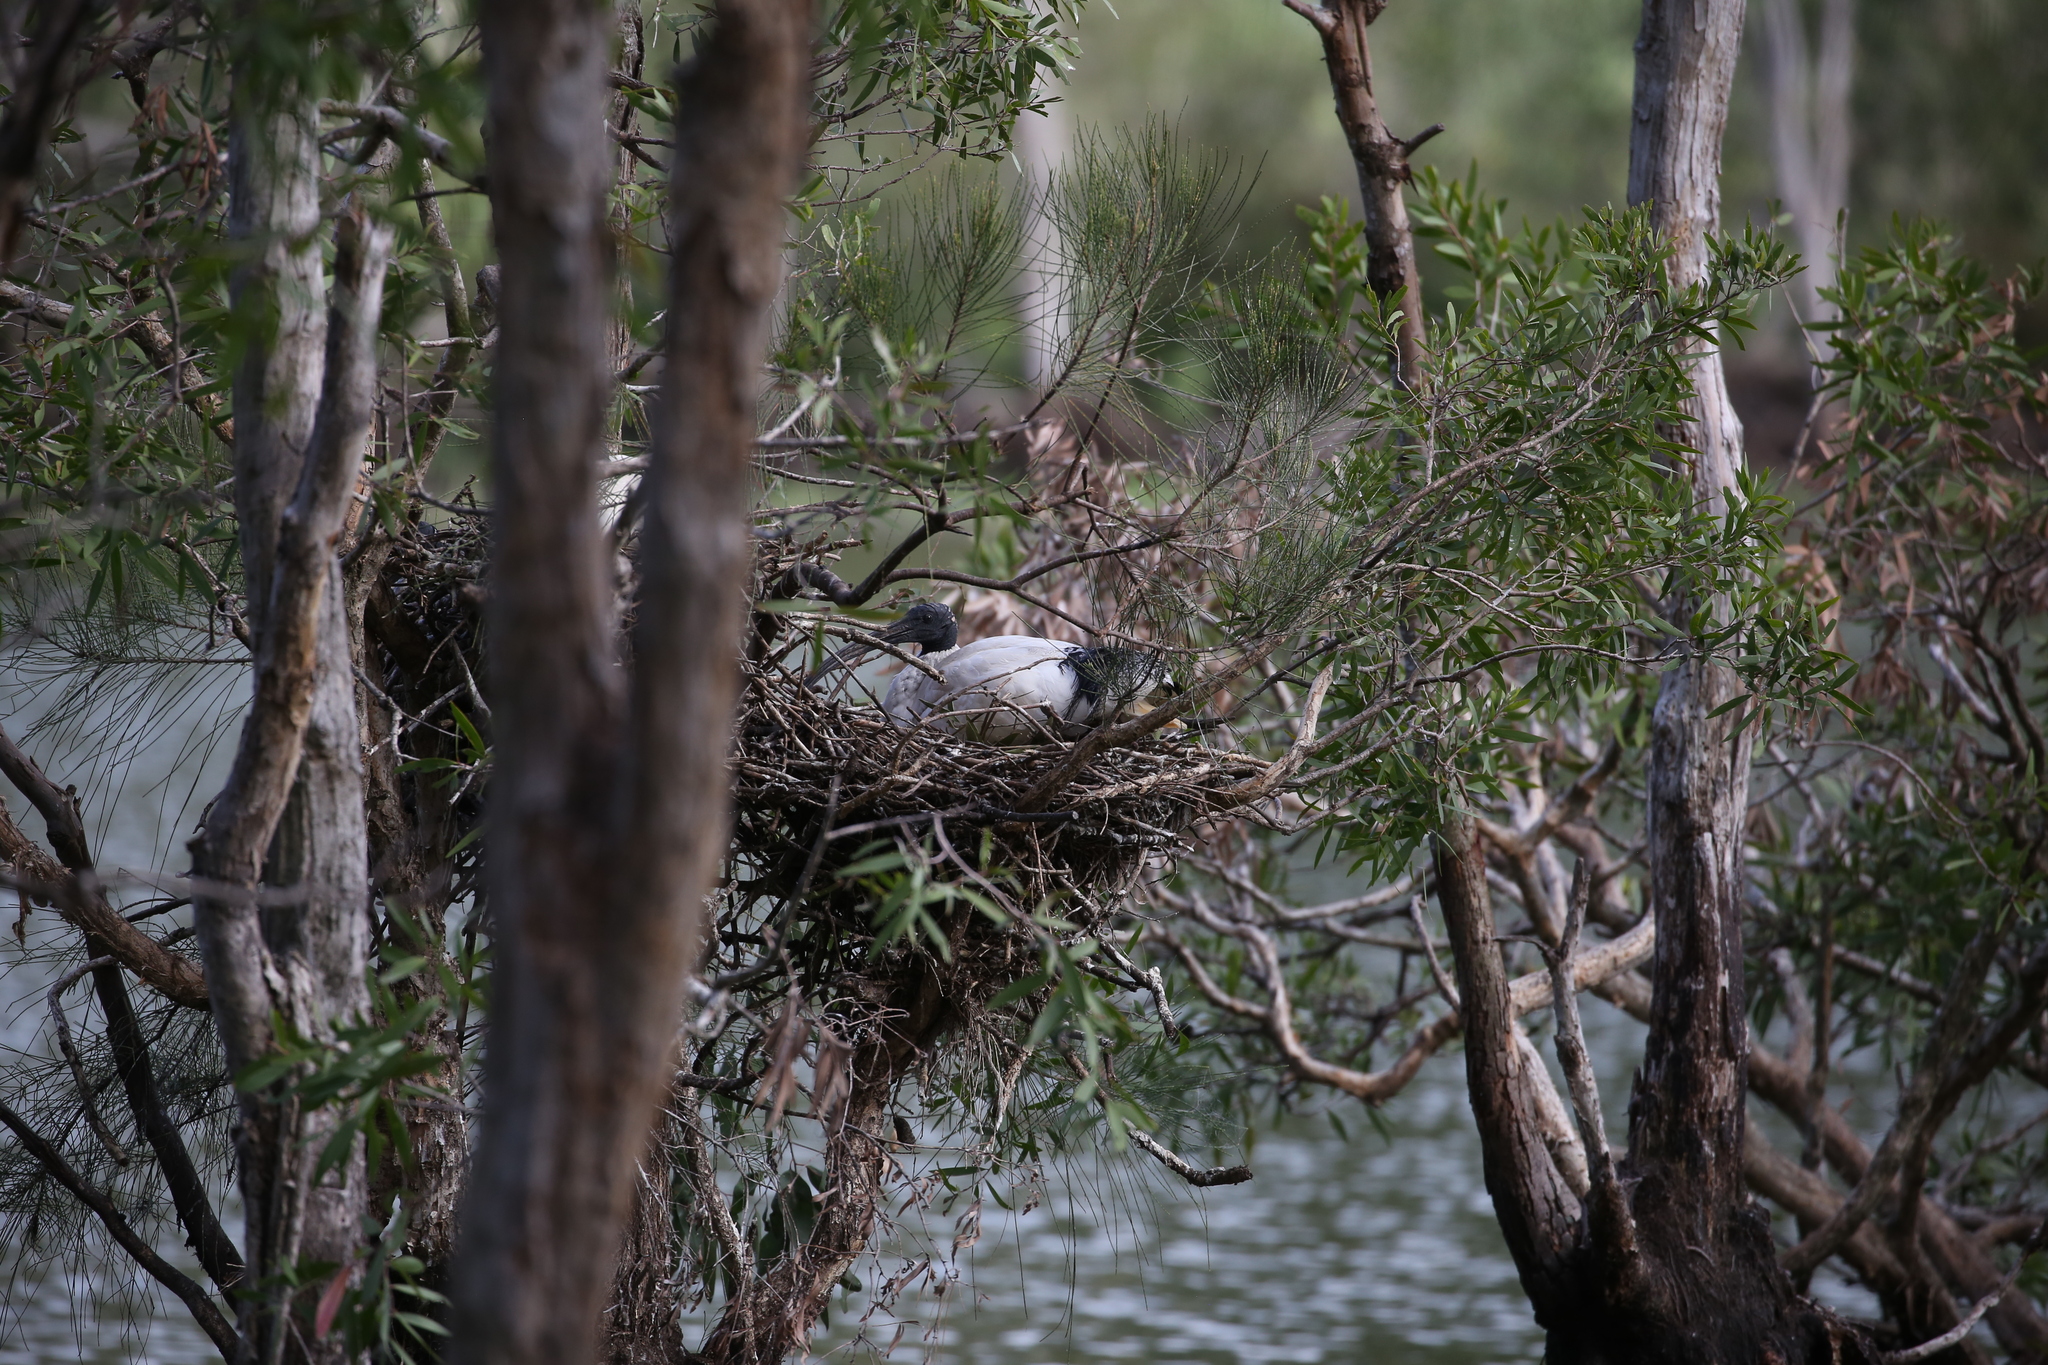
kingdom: Animalia
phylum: Chordata
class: Aves
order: Pelecaniformes
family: Threskiornithidae
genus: Threskiornis
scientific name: Threskiornis molucca
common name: Australian white ibis
